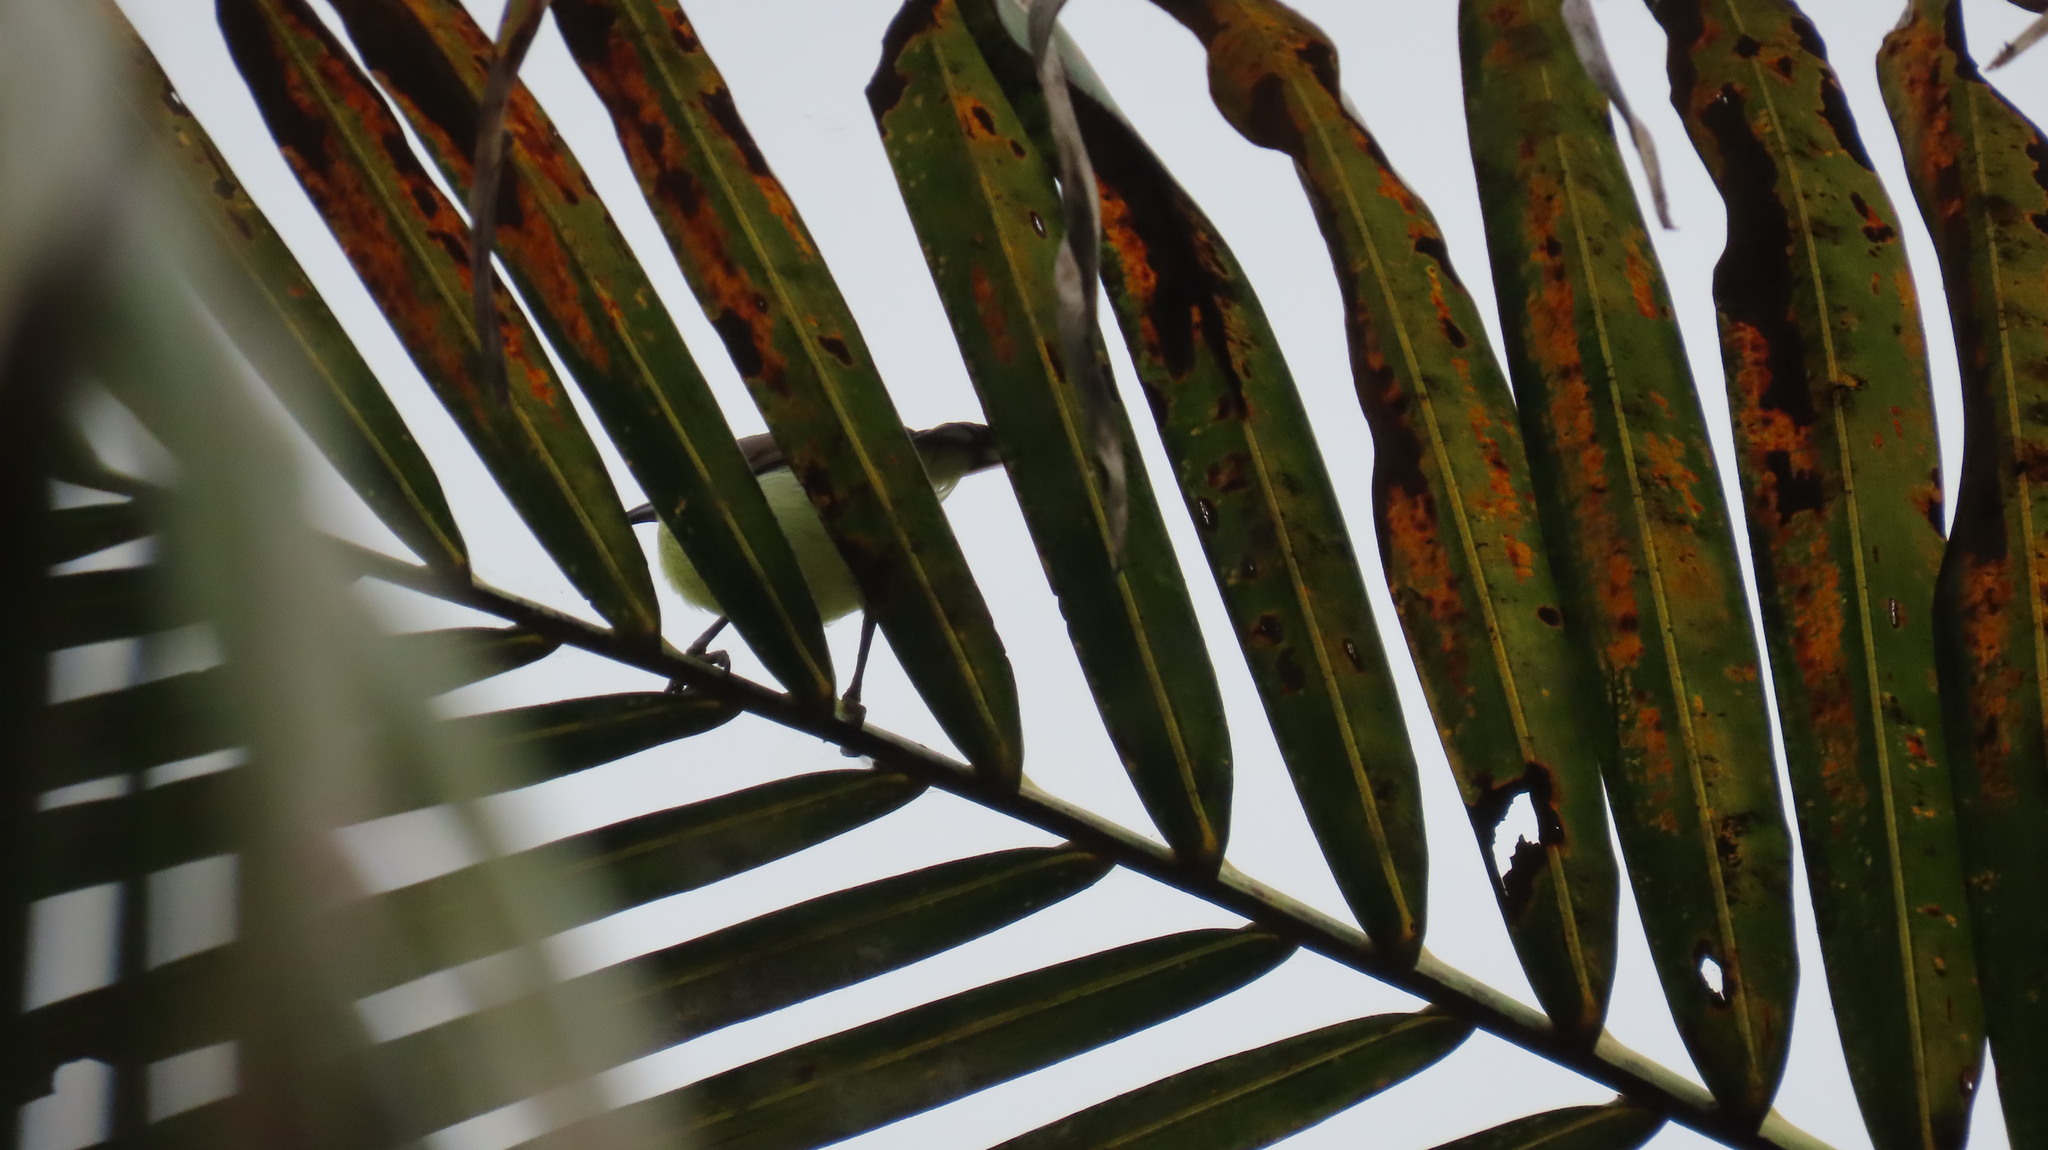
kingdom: Animalia
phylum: Chordata
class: Aves
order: Passeriformes
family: Nectariniidae
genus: Leptocoma
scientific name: Leptocoma zeylonica
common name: Purple-rumped sunbird
